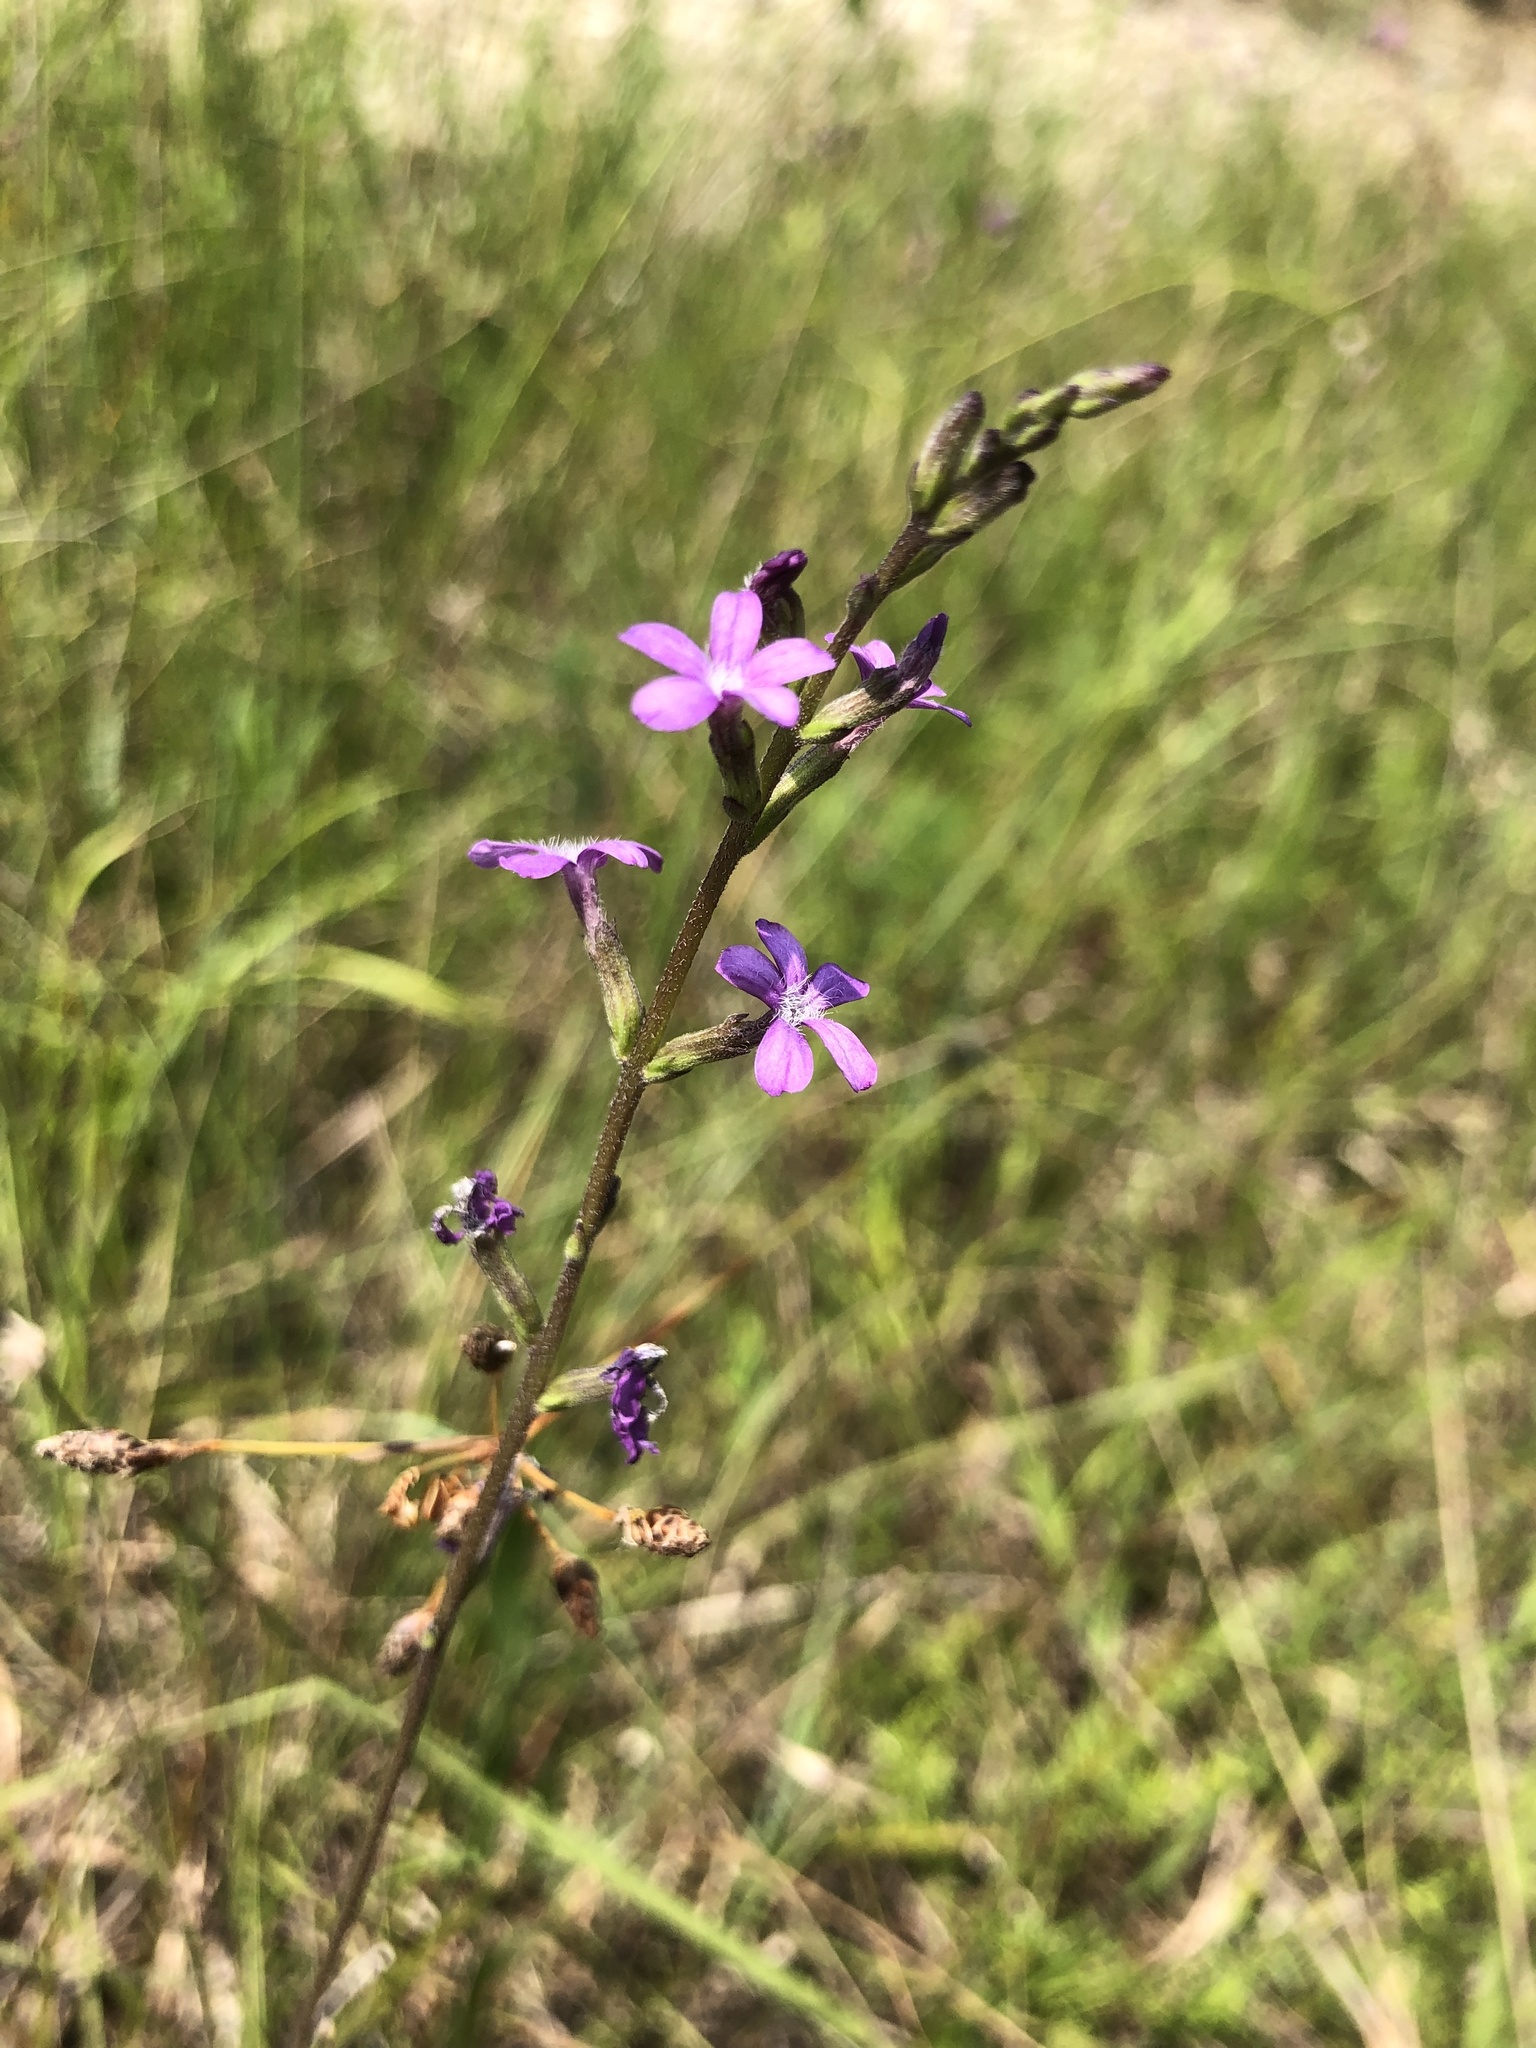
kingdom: Plantae
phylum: Tracheophyta
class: Magnoliopsida
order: Lamiales
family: Orobanchaceae
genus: Buchnera
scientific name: Buchnera floridana
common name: Florida bluehearts
